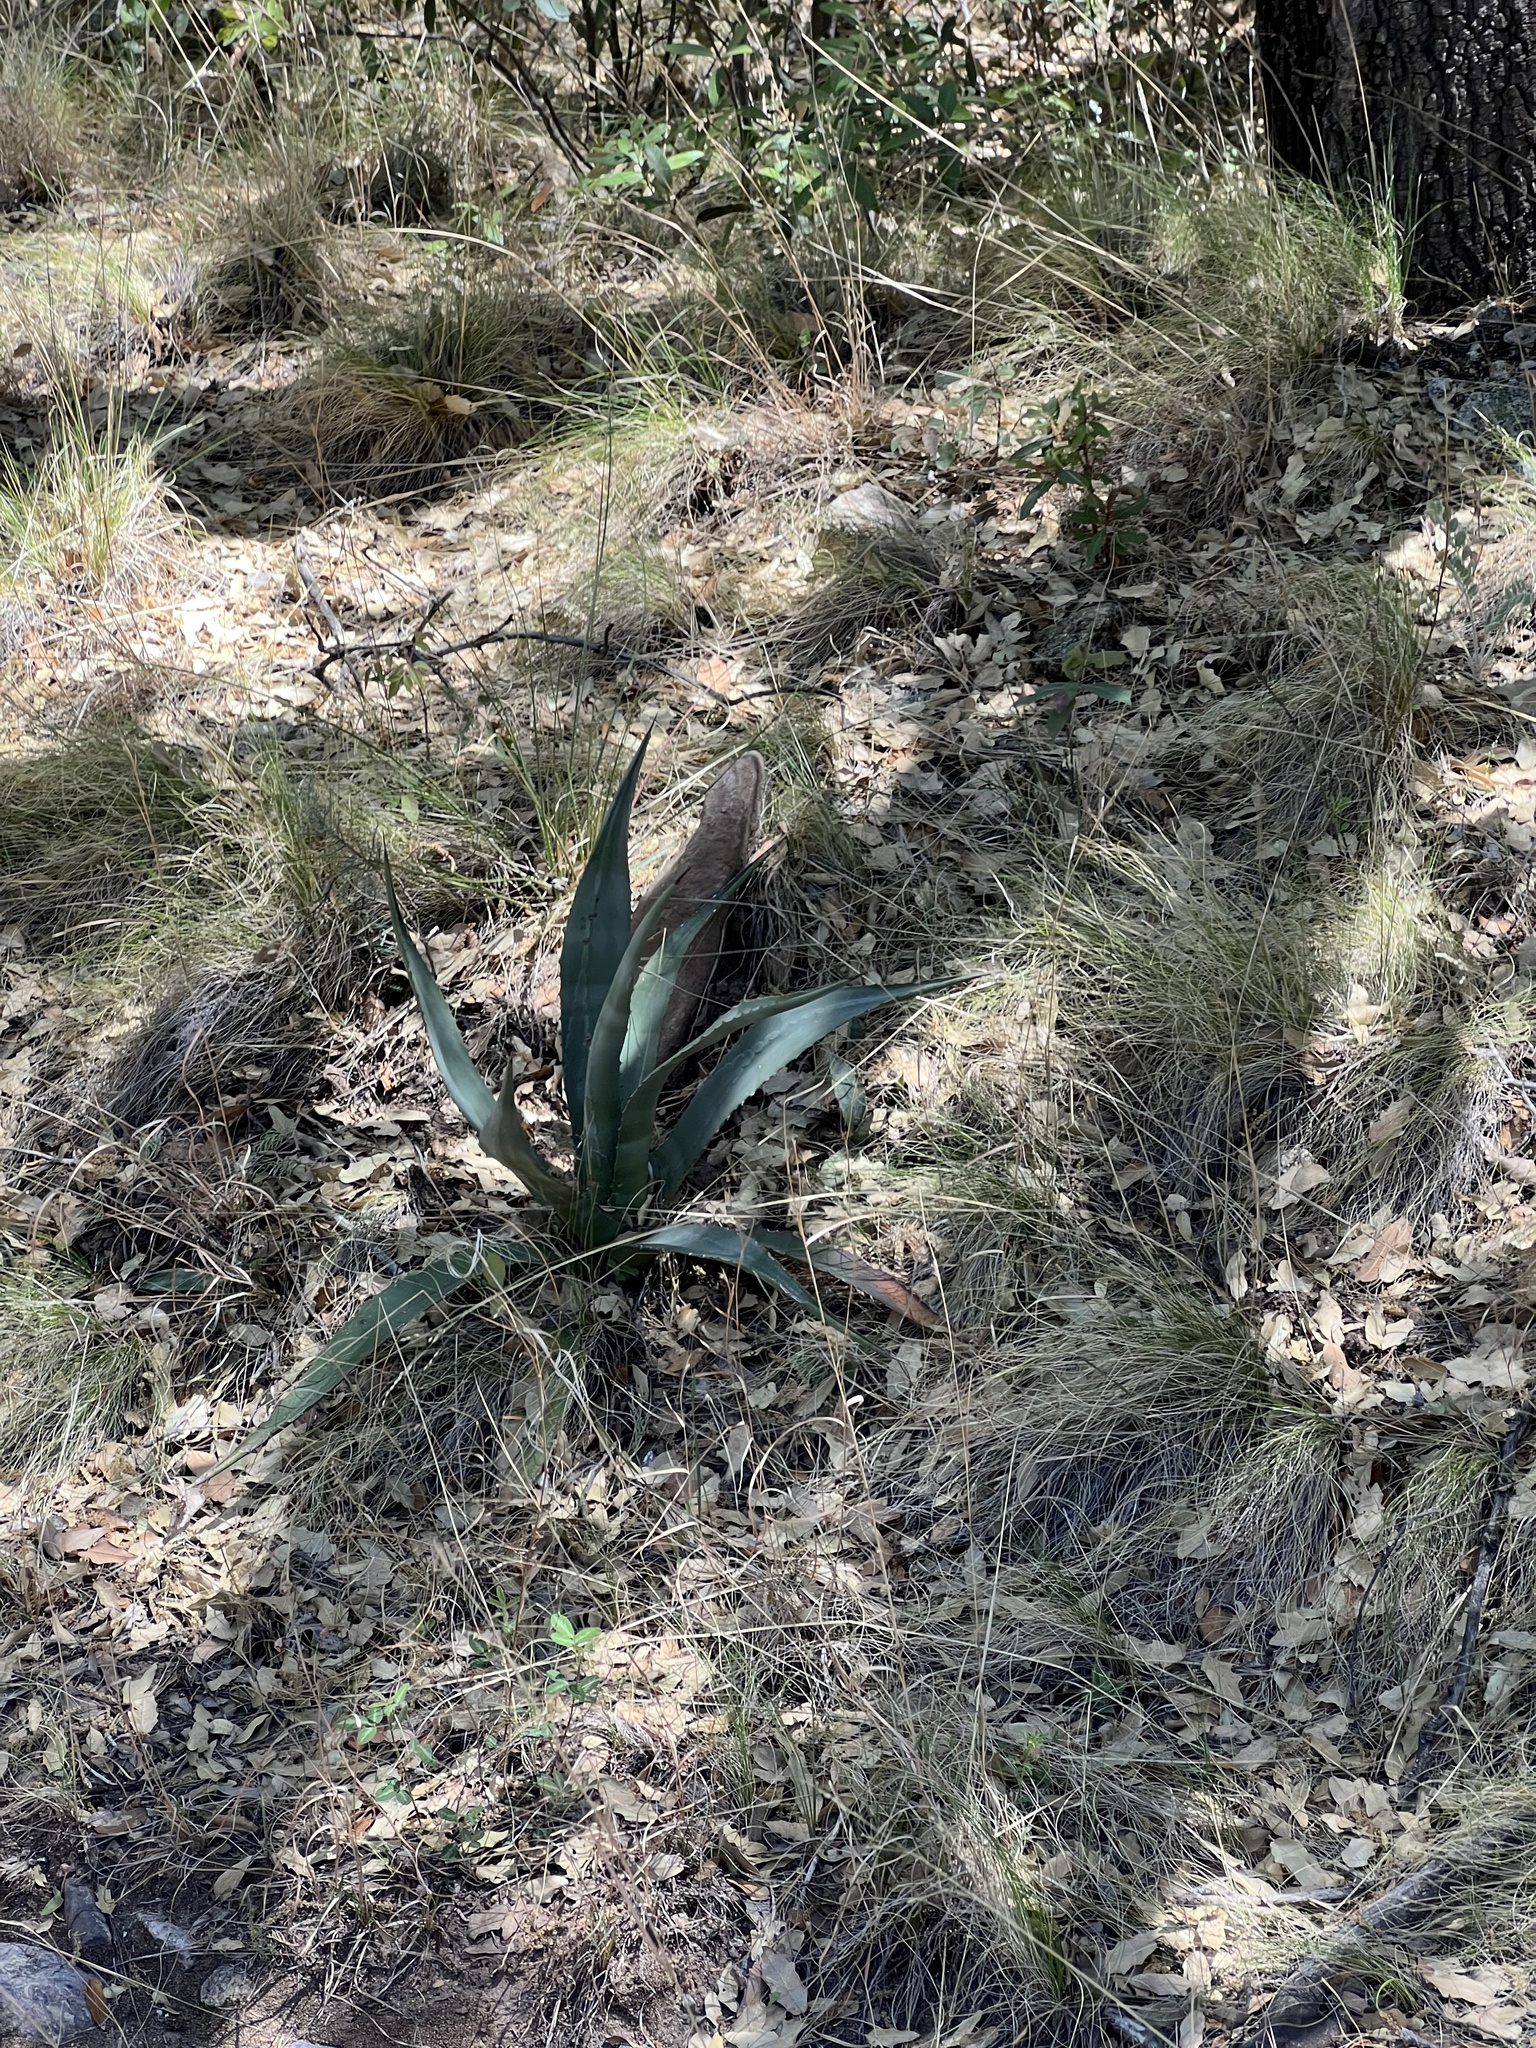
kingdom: Plantae
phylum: Tracheophyta
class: Liliopsida
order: Asparagales
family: Asparagaceae
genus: Agave
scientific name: Agave palmeri
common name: Palmer agave
